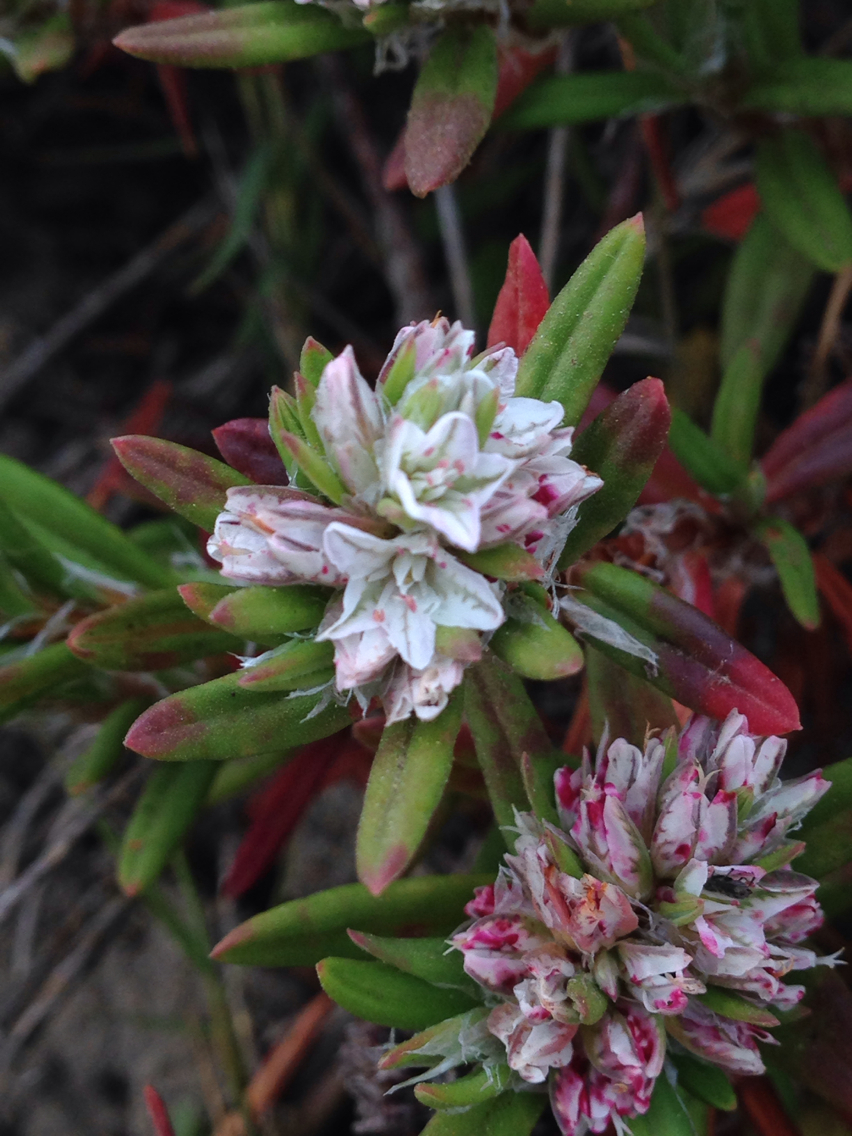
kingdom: Plantae
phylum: Tracheophyta
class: Magnoliopsida
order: Caryophyllales
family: Polygonaceae
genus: Polygonum
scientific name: Polygonum paronychia
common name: Dune knotweed
